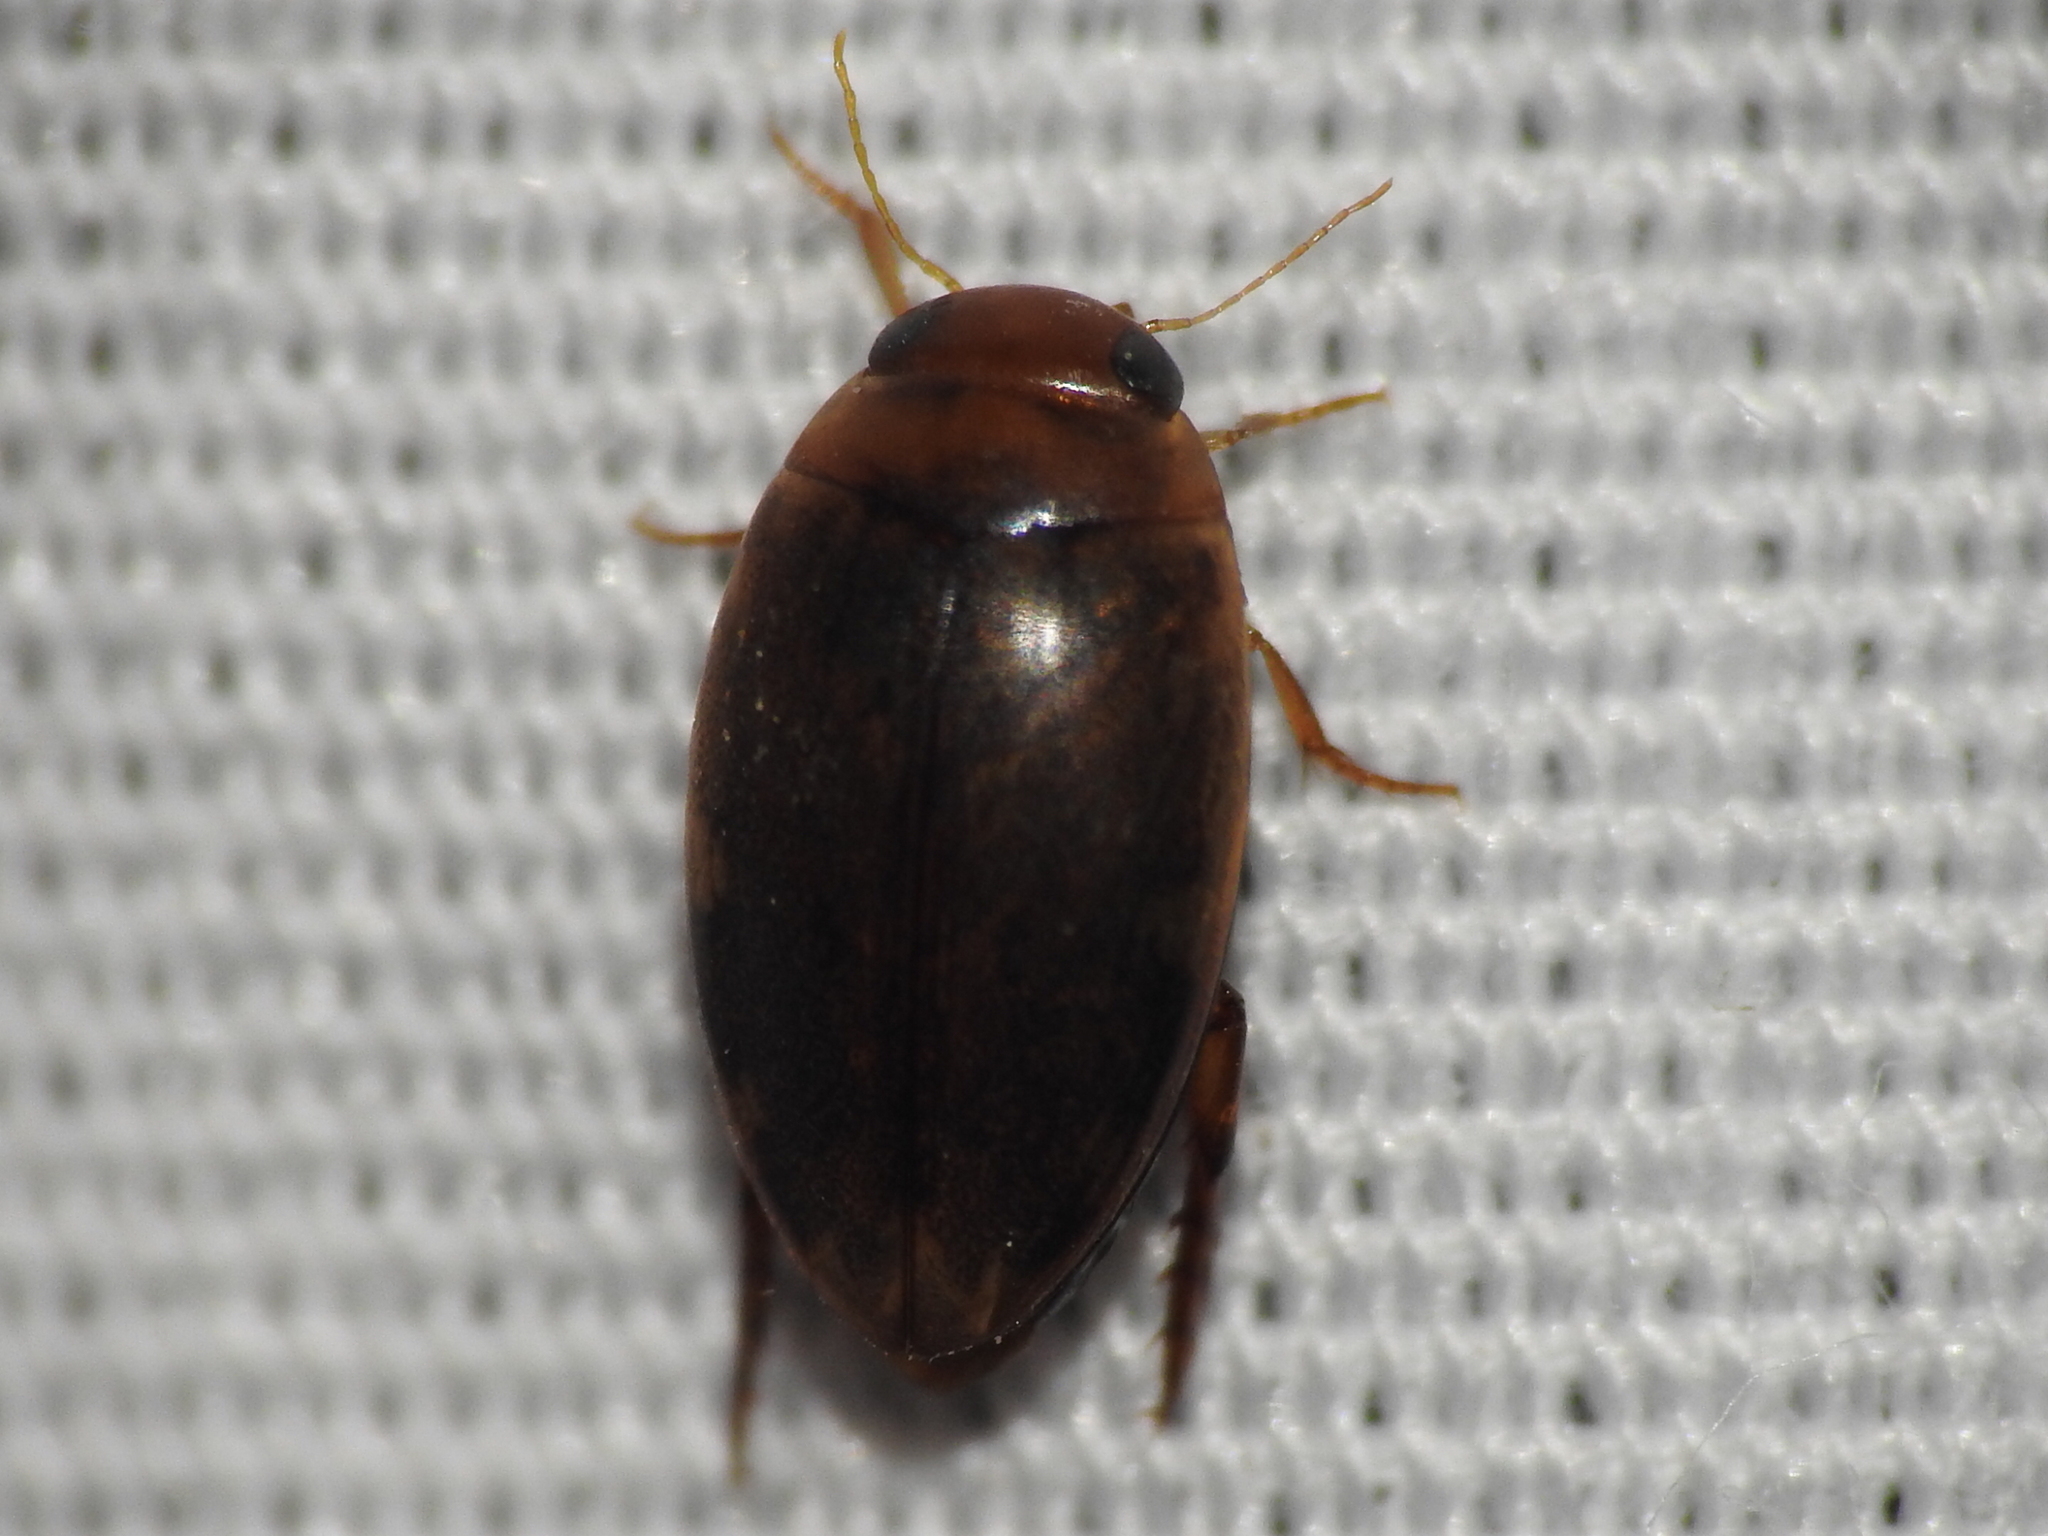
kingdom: Animalia
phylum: Arthropoda
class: Insecta
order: Coleoptera
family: Dytiscidae
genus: Laccophilus
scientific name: Laccophilus
